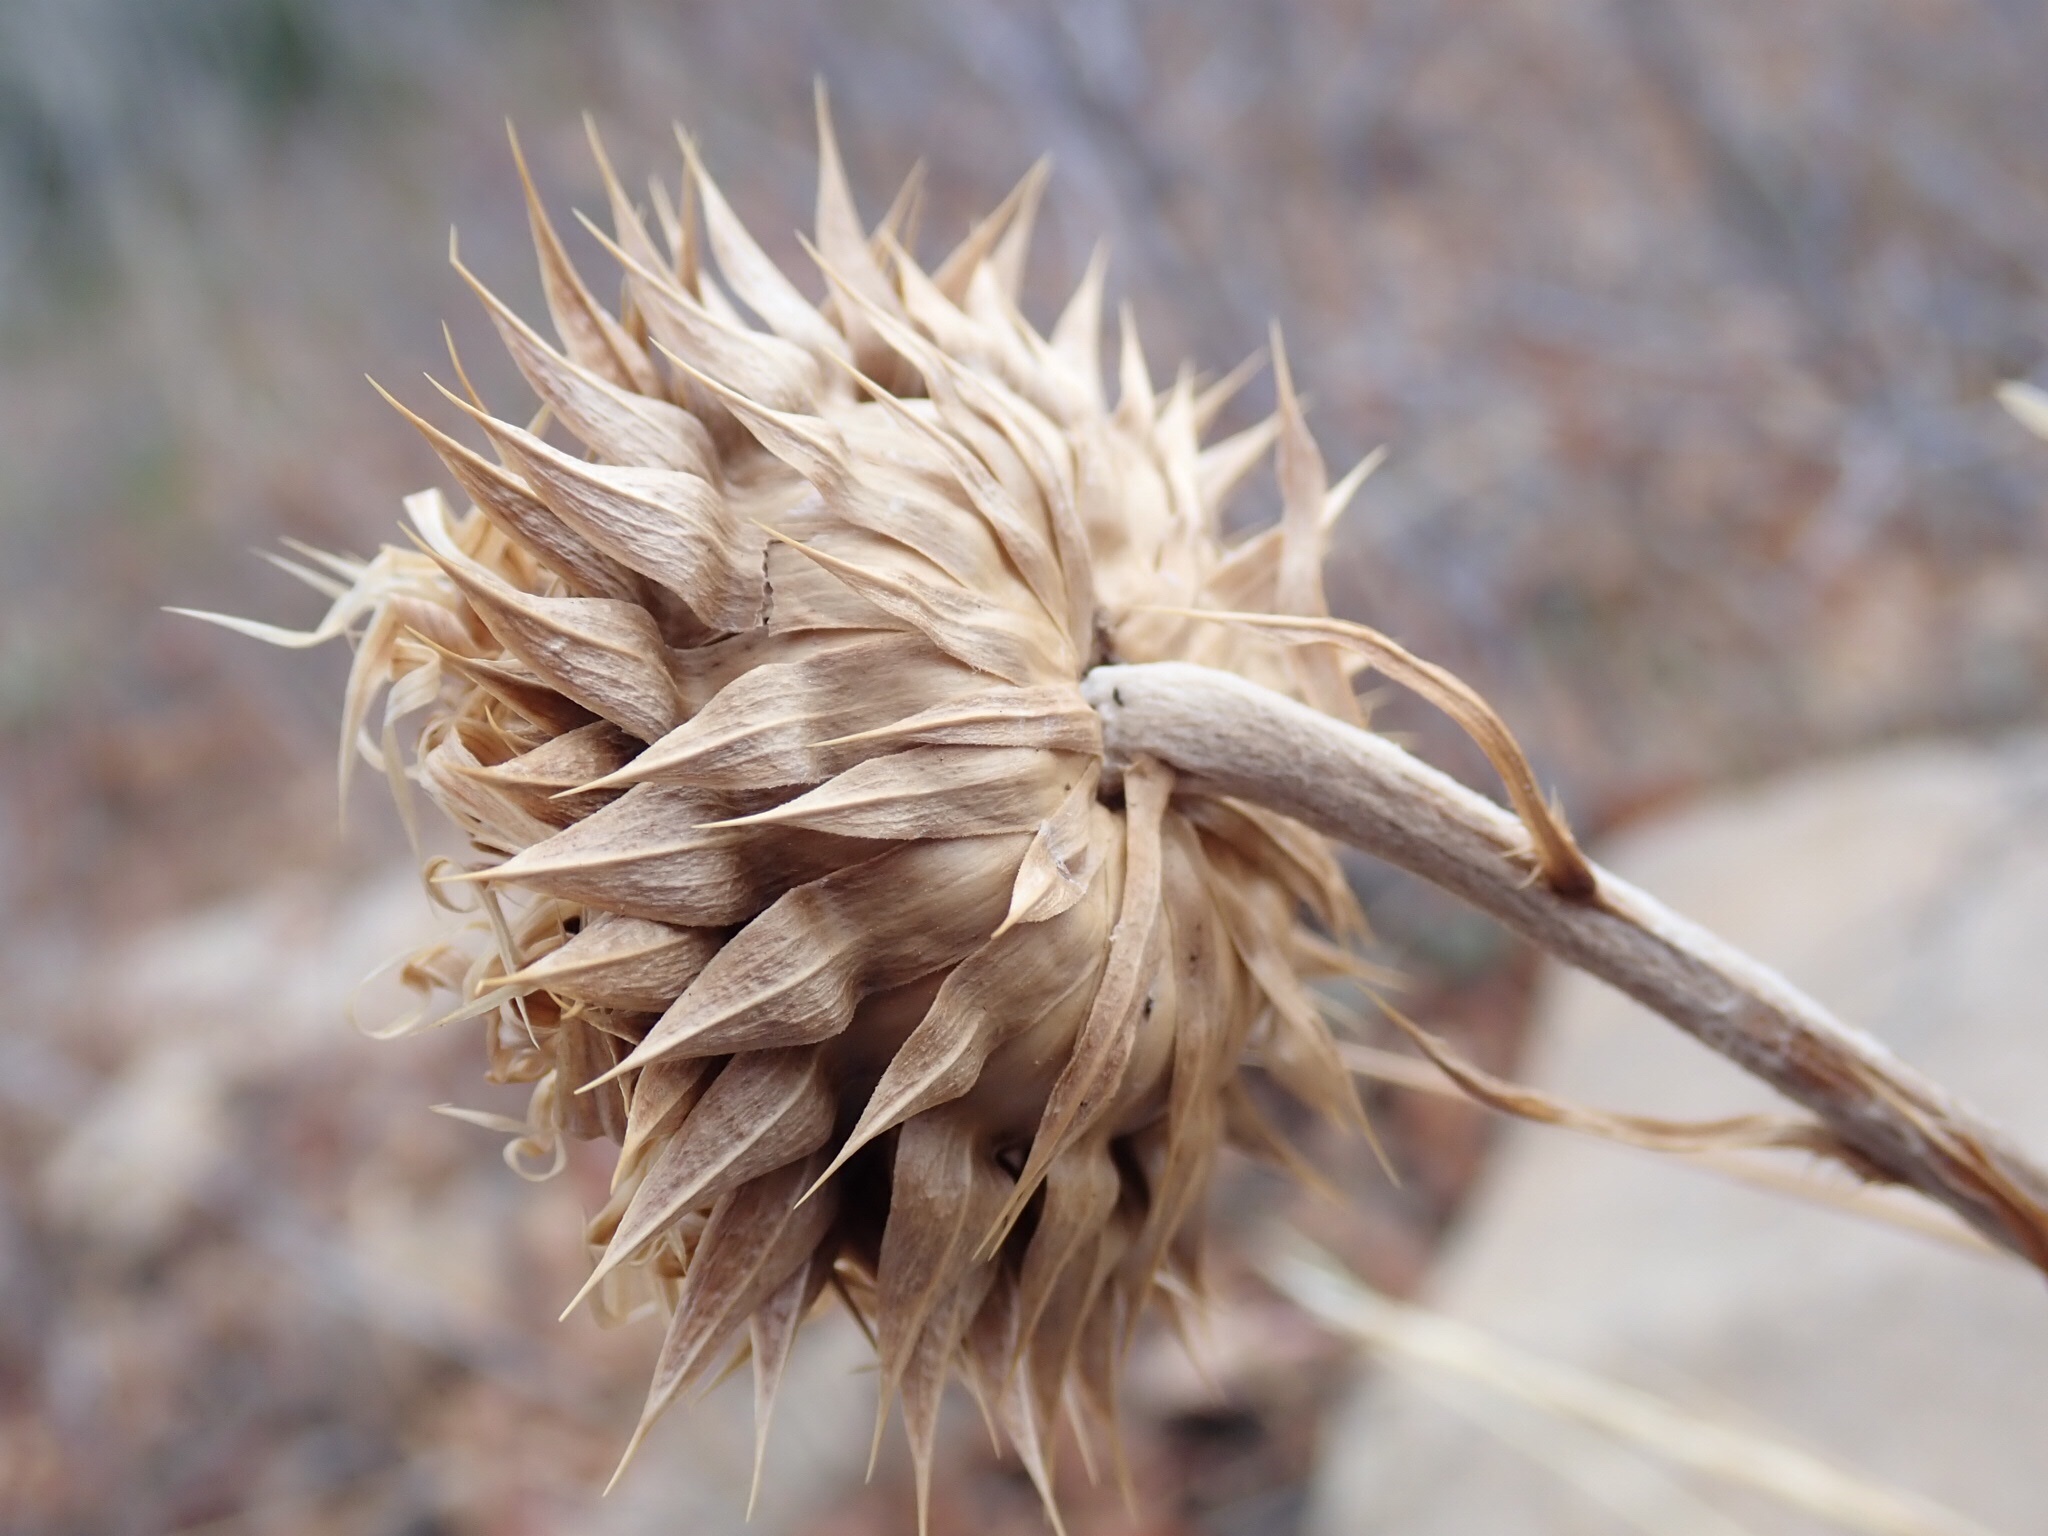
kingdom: Plantae
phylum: Tracheophyta
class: Magnoliopsida
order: Asterales
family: Asteraceae
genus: Carduus
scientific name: Carduus nutans
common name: Musk thistle
